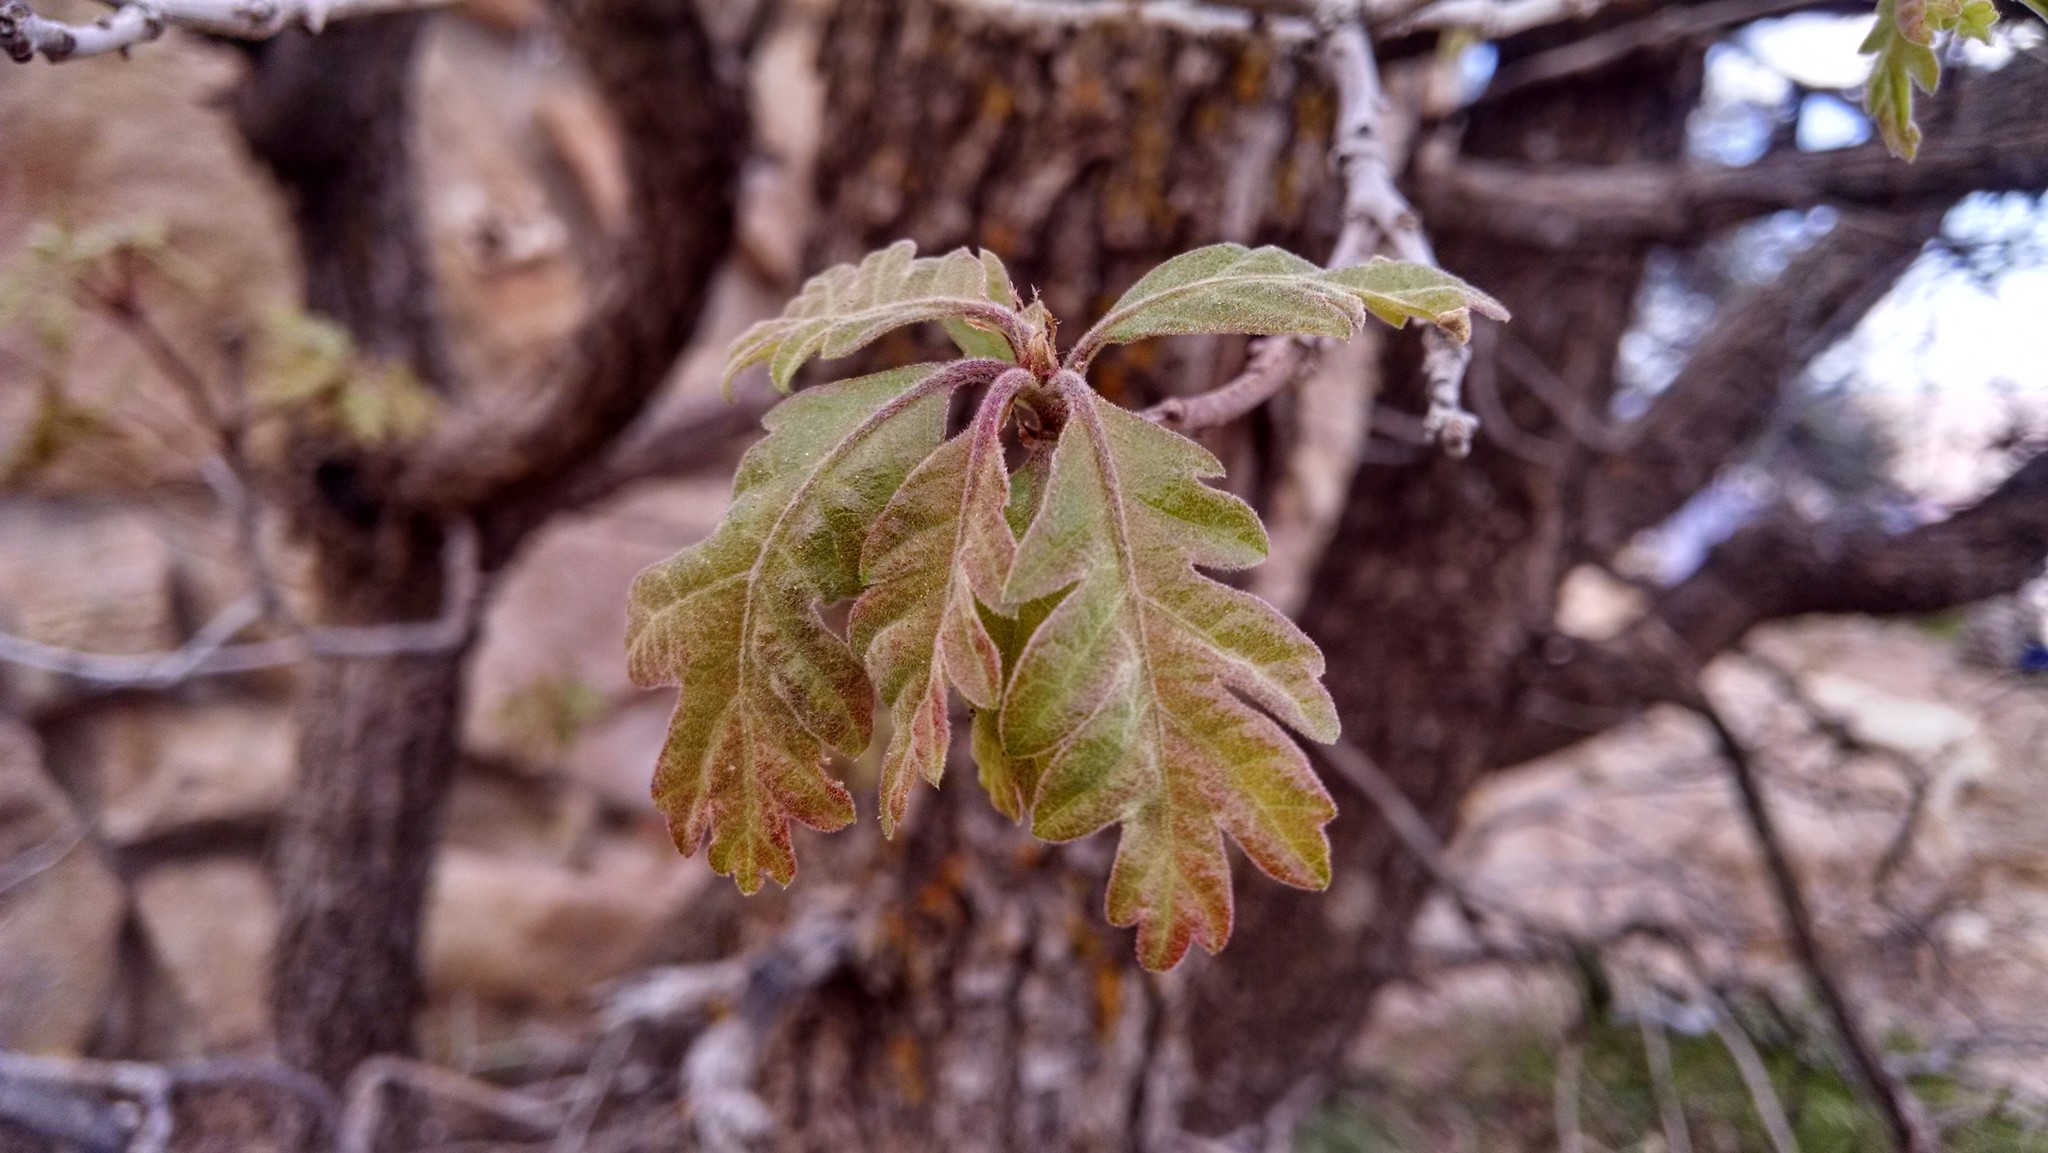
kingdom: Plantae
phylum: Tracheophyta
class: Magnoliopsida
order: Fagales
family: Fagaceae
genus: Quercus
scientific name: Quercus gambelii
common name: Gambel oak
